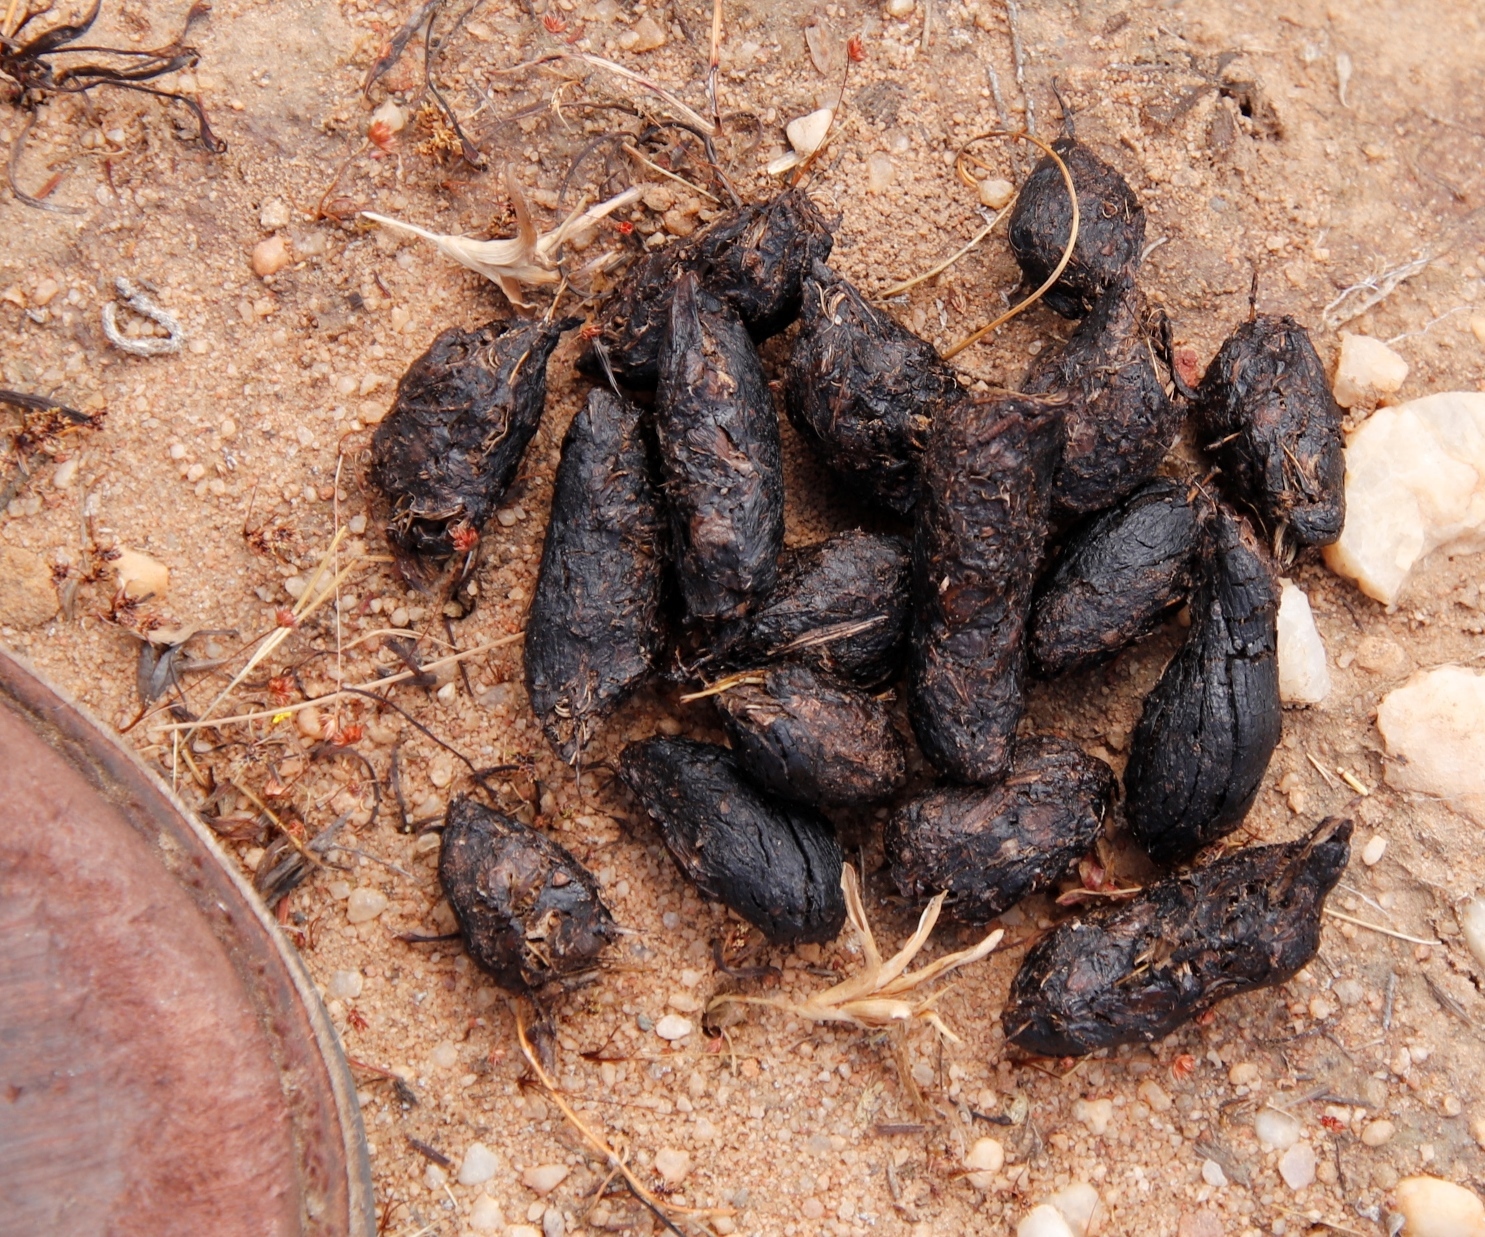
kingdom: Animalia
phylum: Chordata
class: Mammalia
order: Rodentia
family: Hystricidae
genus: Hystrix
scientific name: Hystrix africaeaustralis
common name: Cape porcupine
